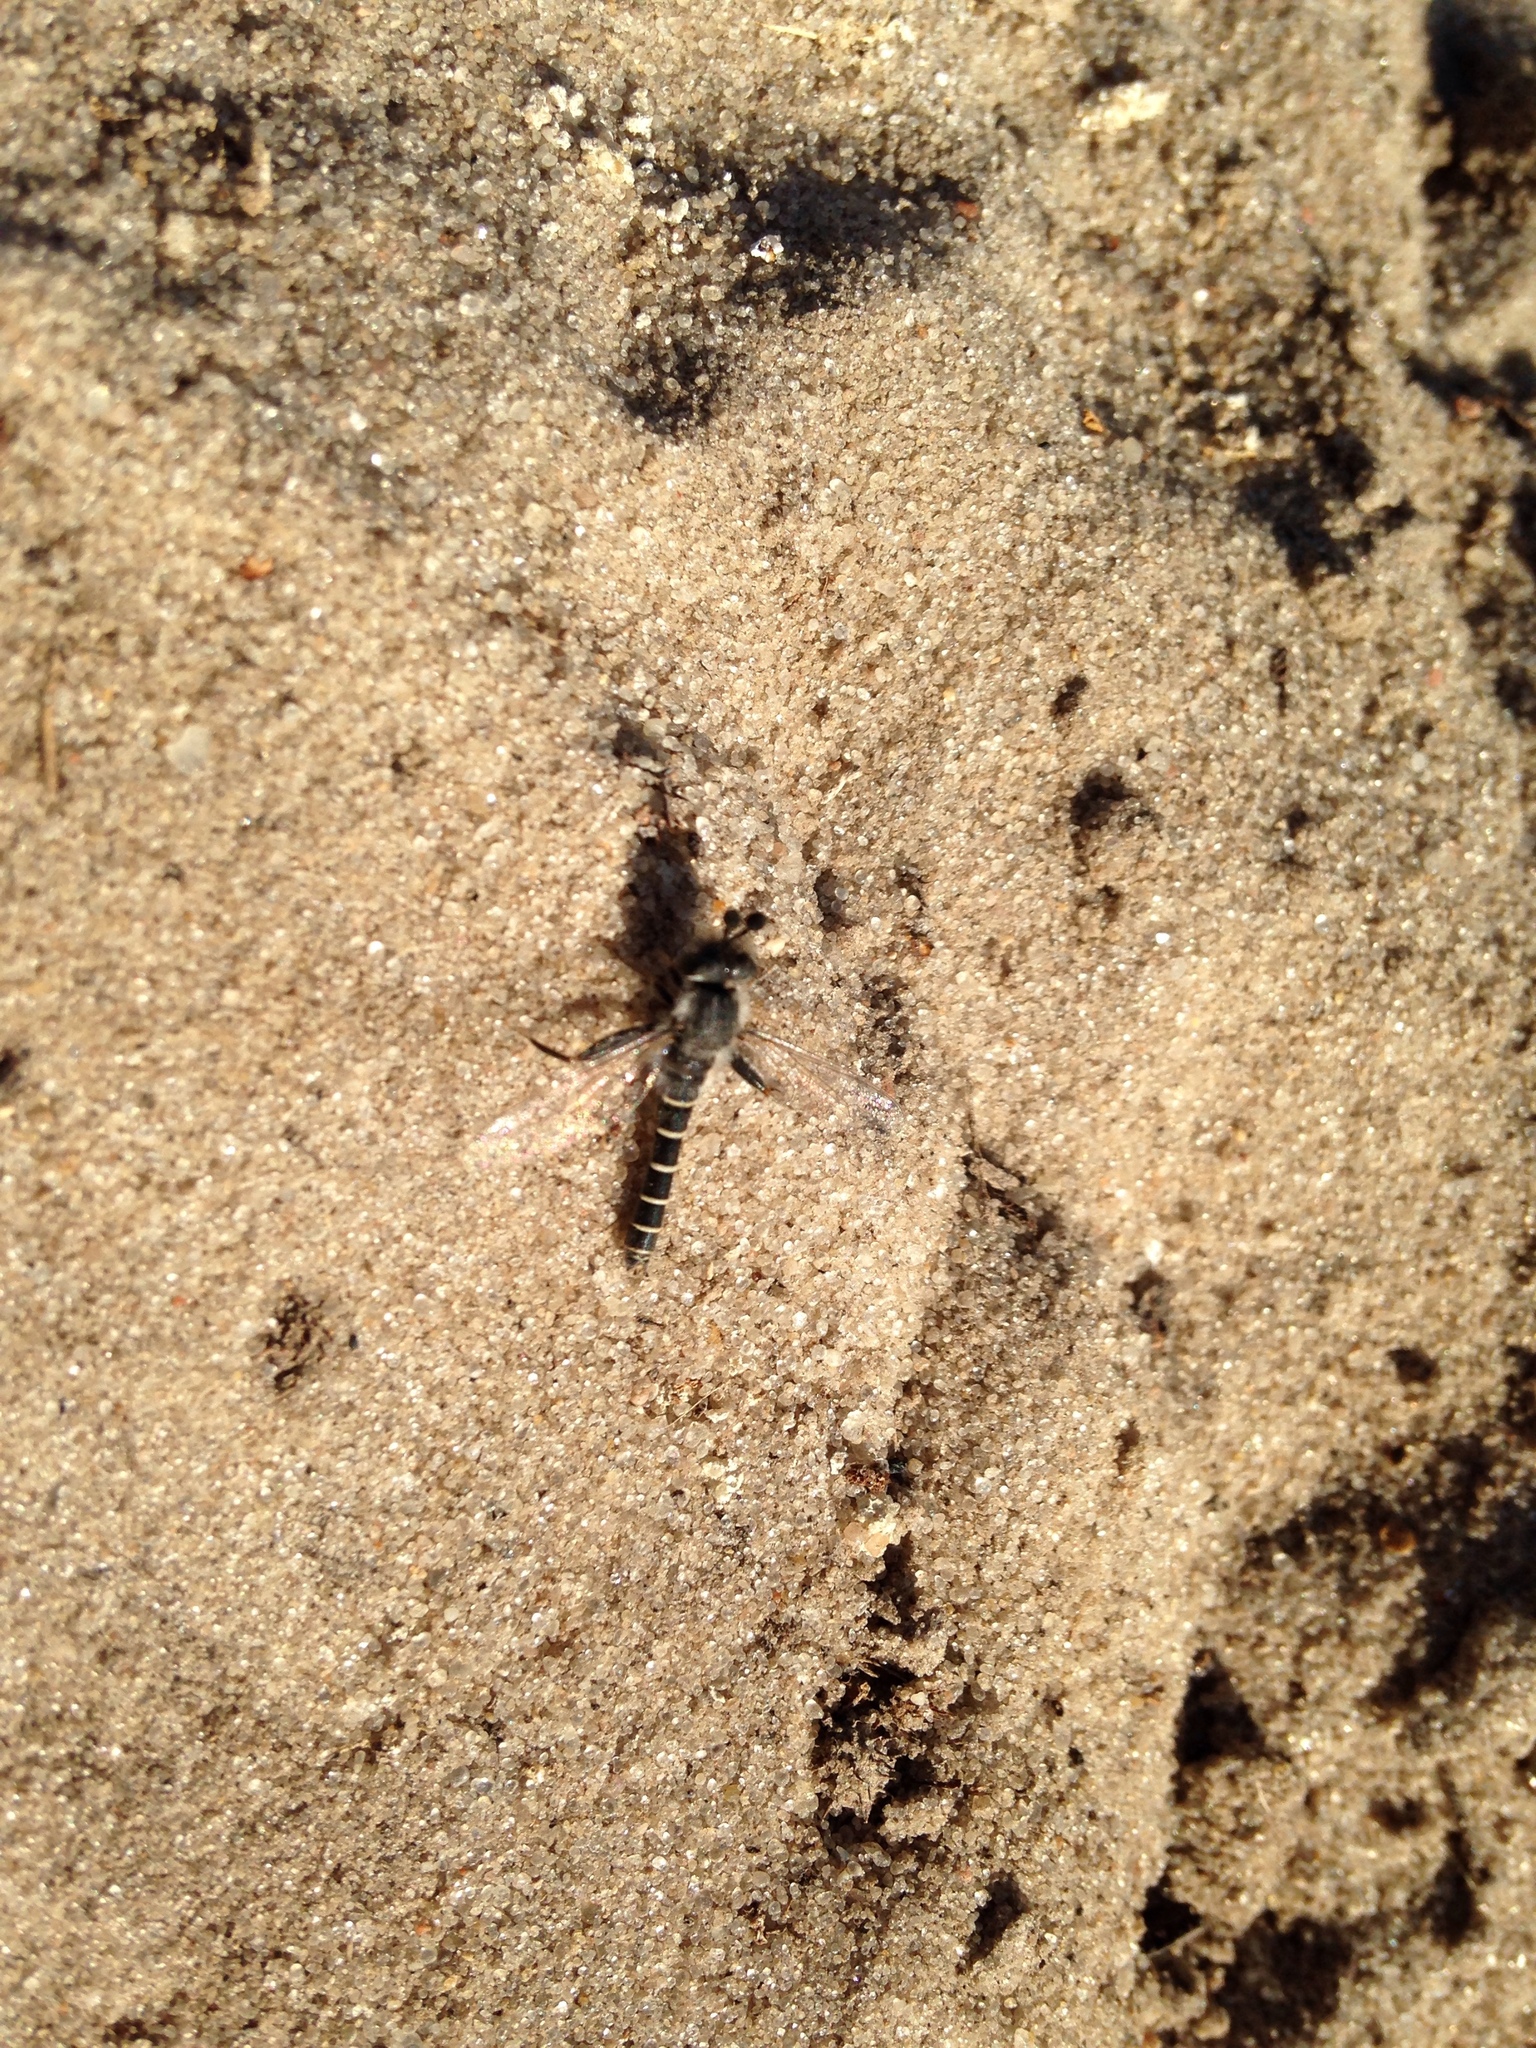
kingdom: Animalia
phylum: Arthropoda
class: Insecta
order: Diptera
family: Mydidae
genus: Lachnocorynus
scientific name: Lachnocorynus chobeensis
